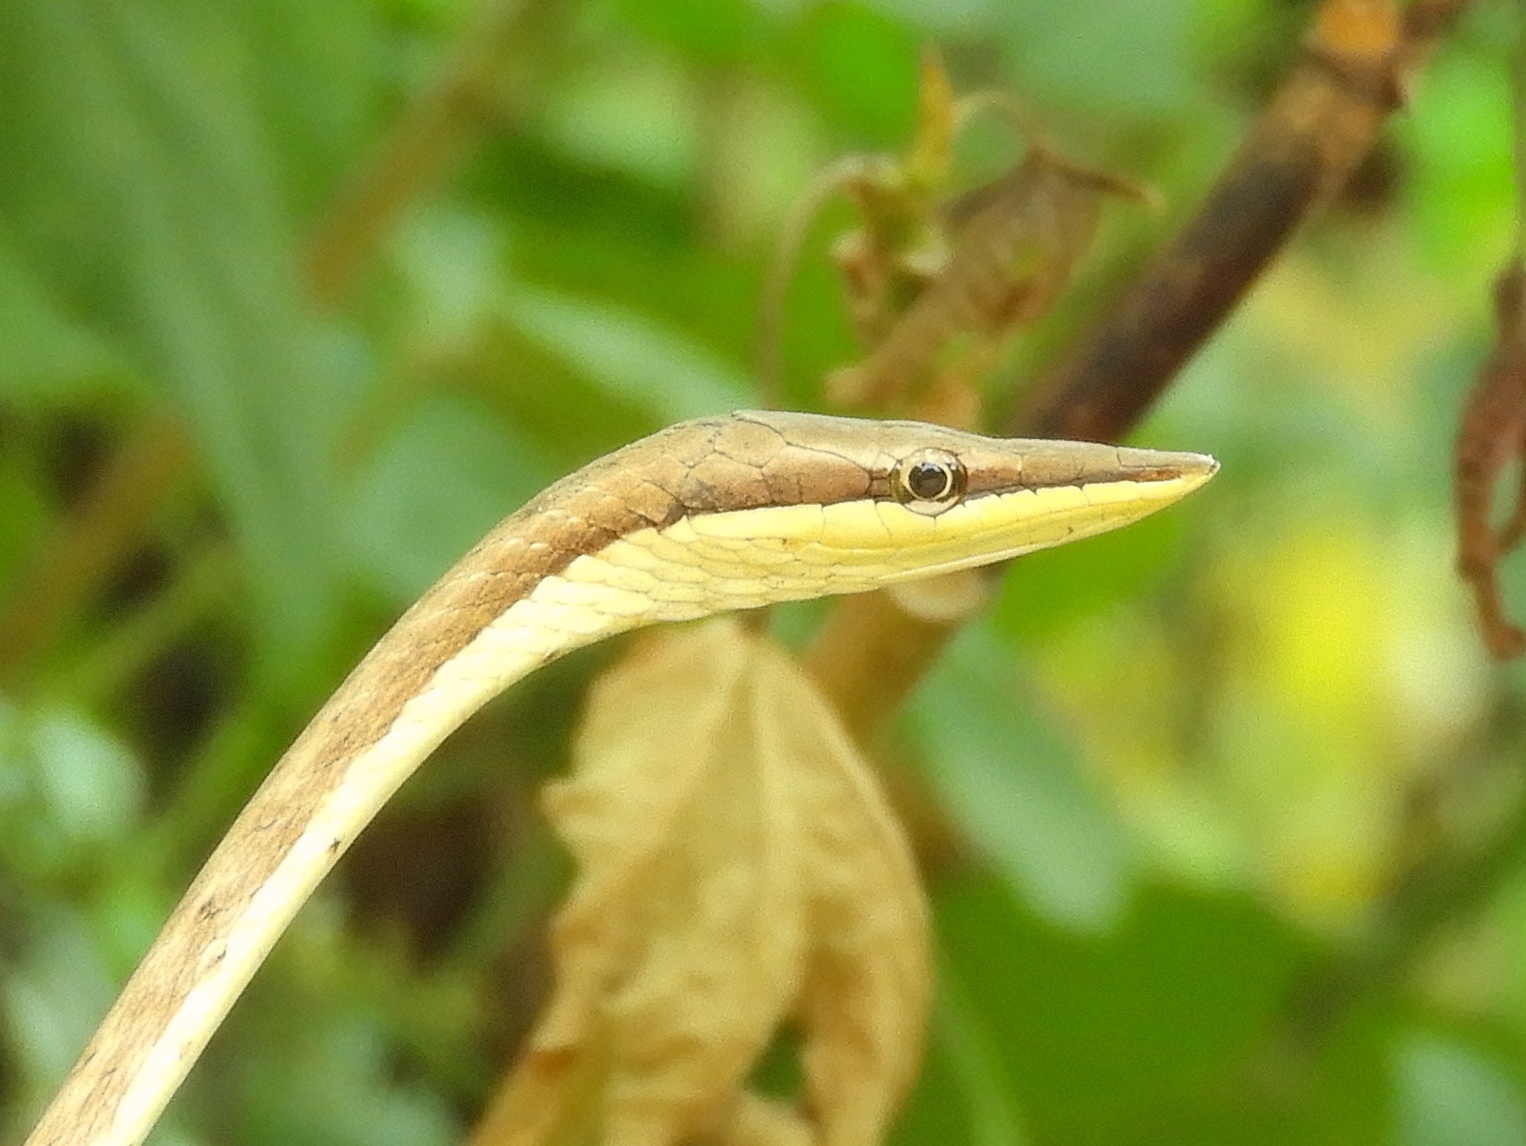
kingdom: Animalia
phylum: Chordata
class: Squamata
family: Colubridae
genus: Oxybelis
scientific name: Oxybelis microphthalmus
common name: Thrornscrub vine snake
